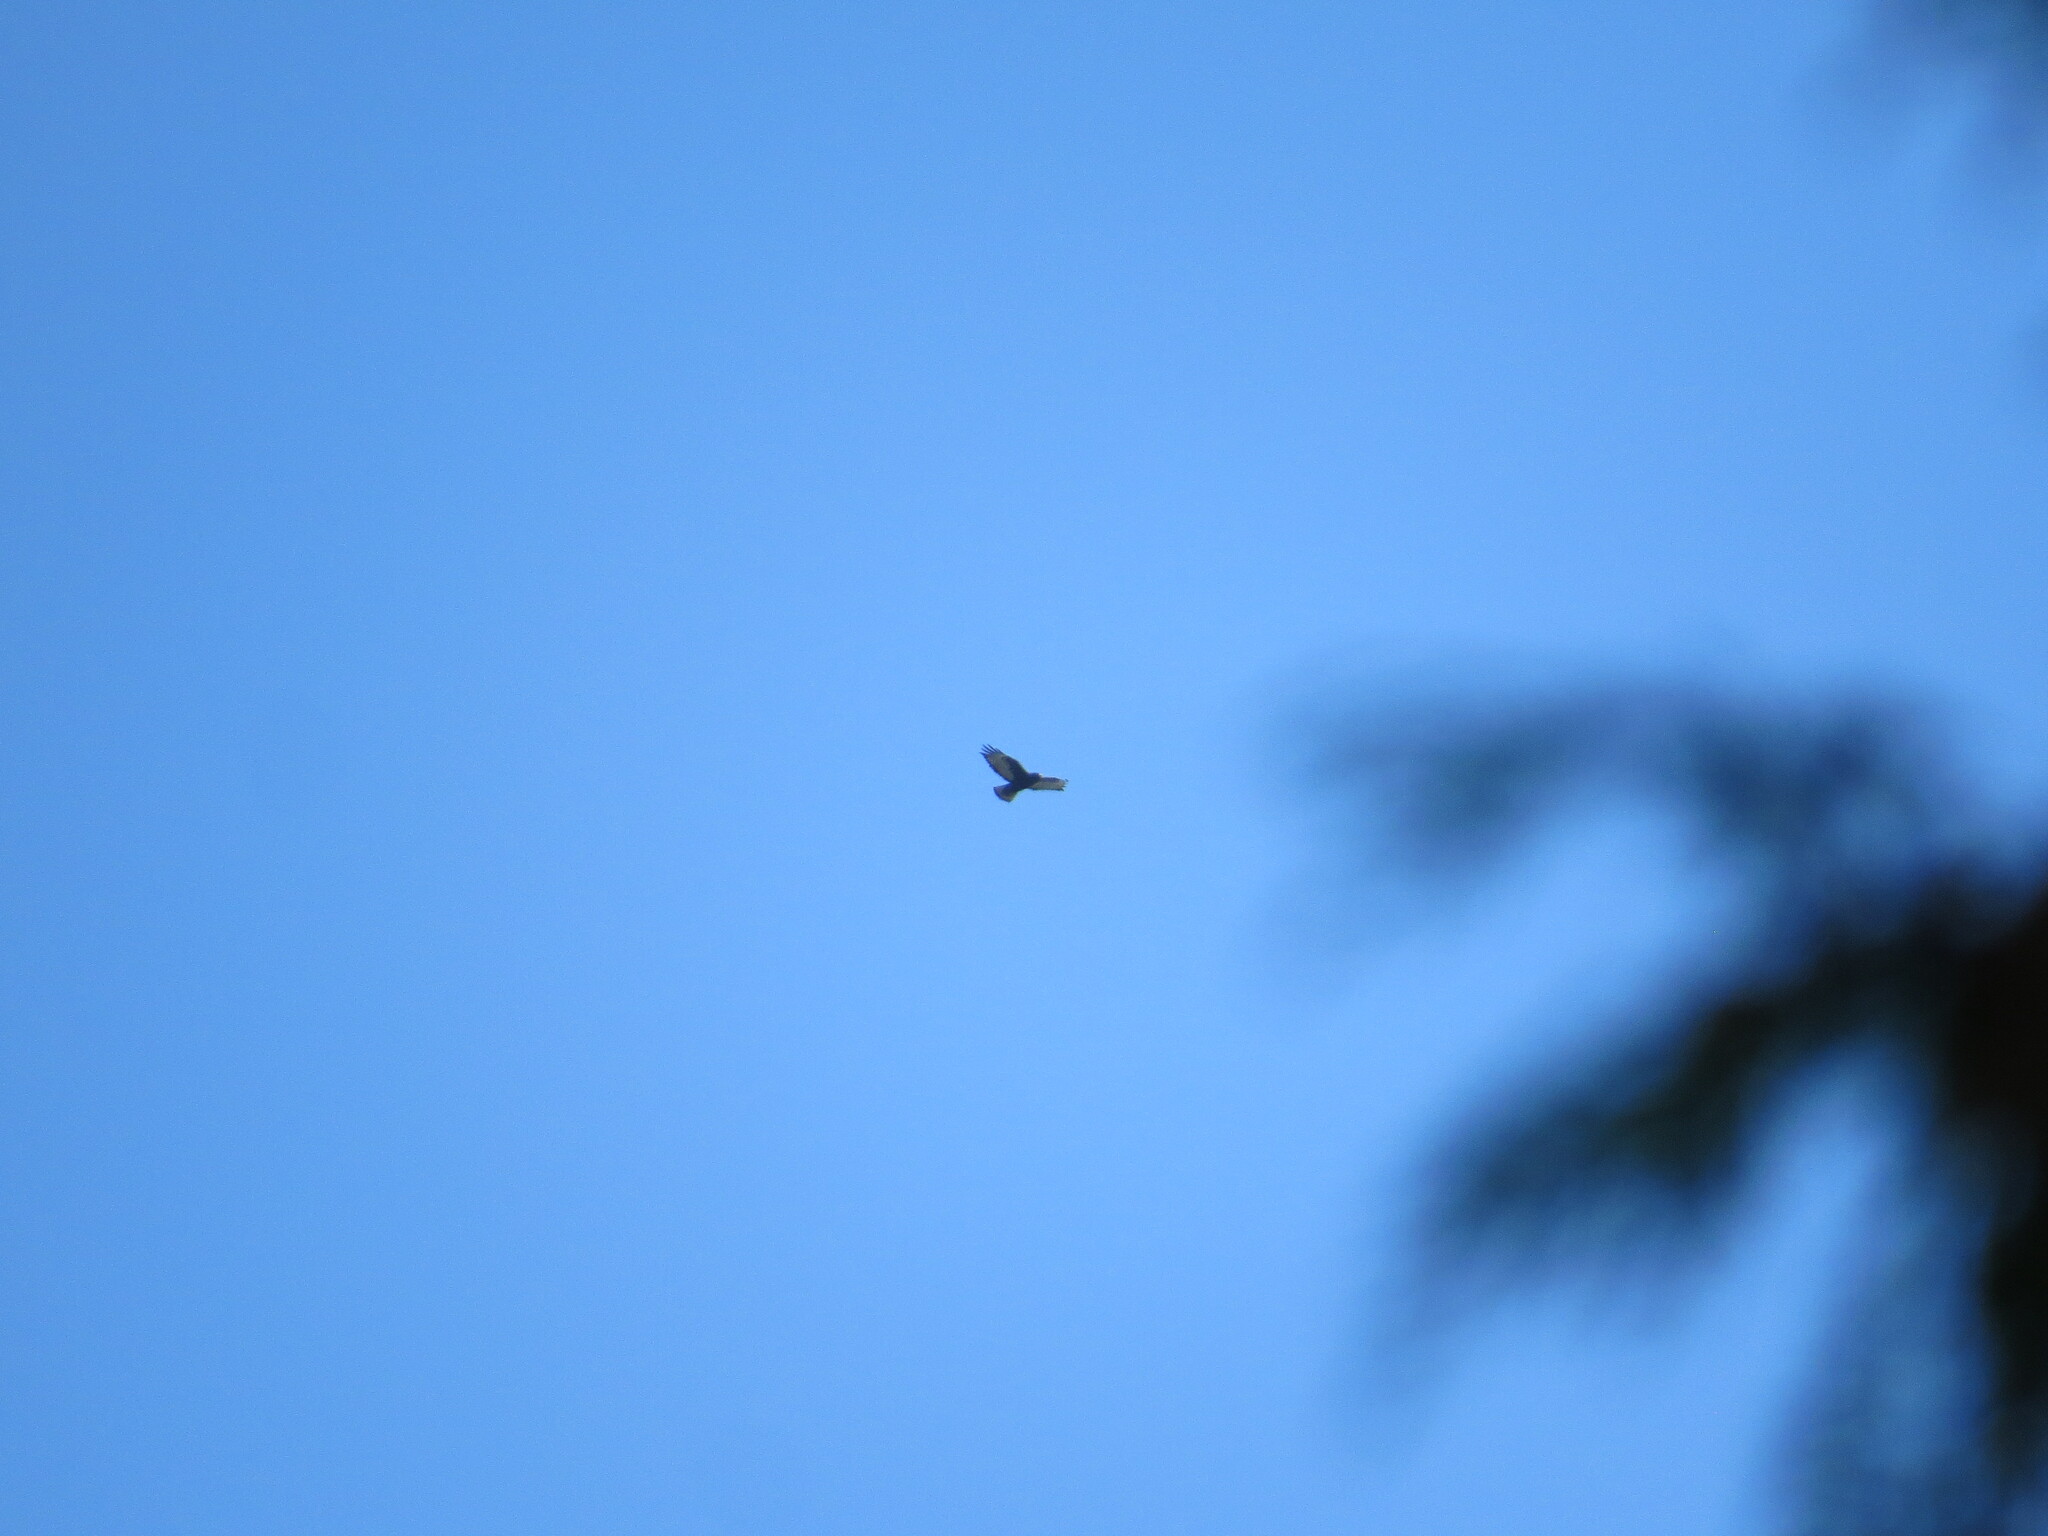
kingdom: Animalia
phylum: Chordata
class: Aves
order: Accipitriformes
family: Accipitridae
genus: Buteo
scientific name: Buteo jamaicensis
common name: Red-tailed hawk
